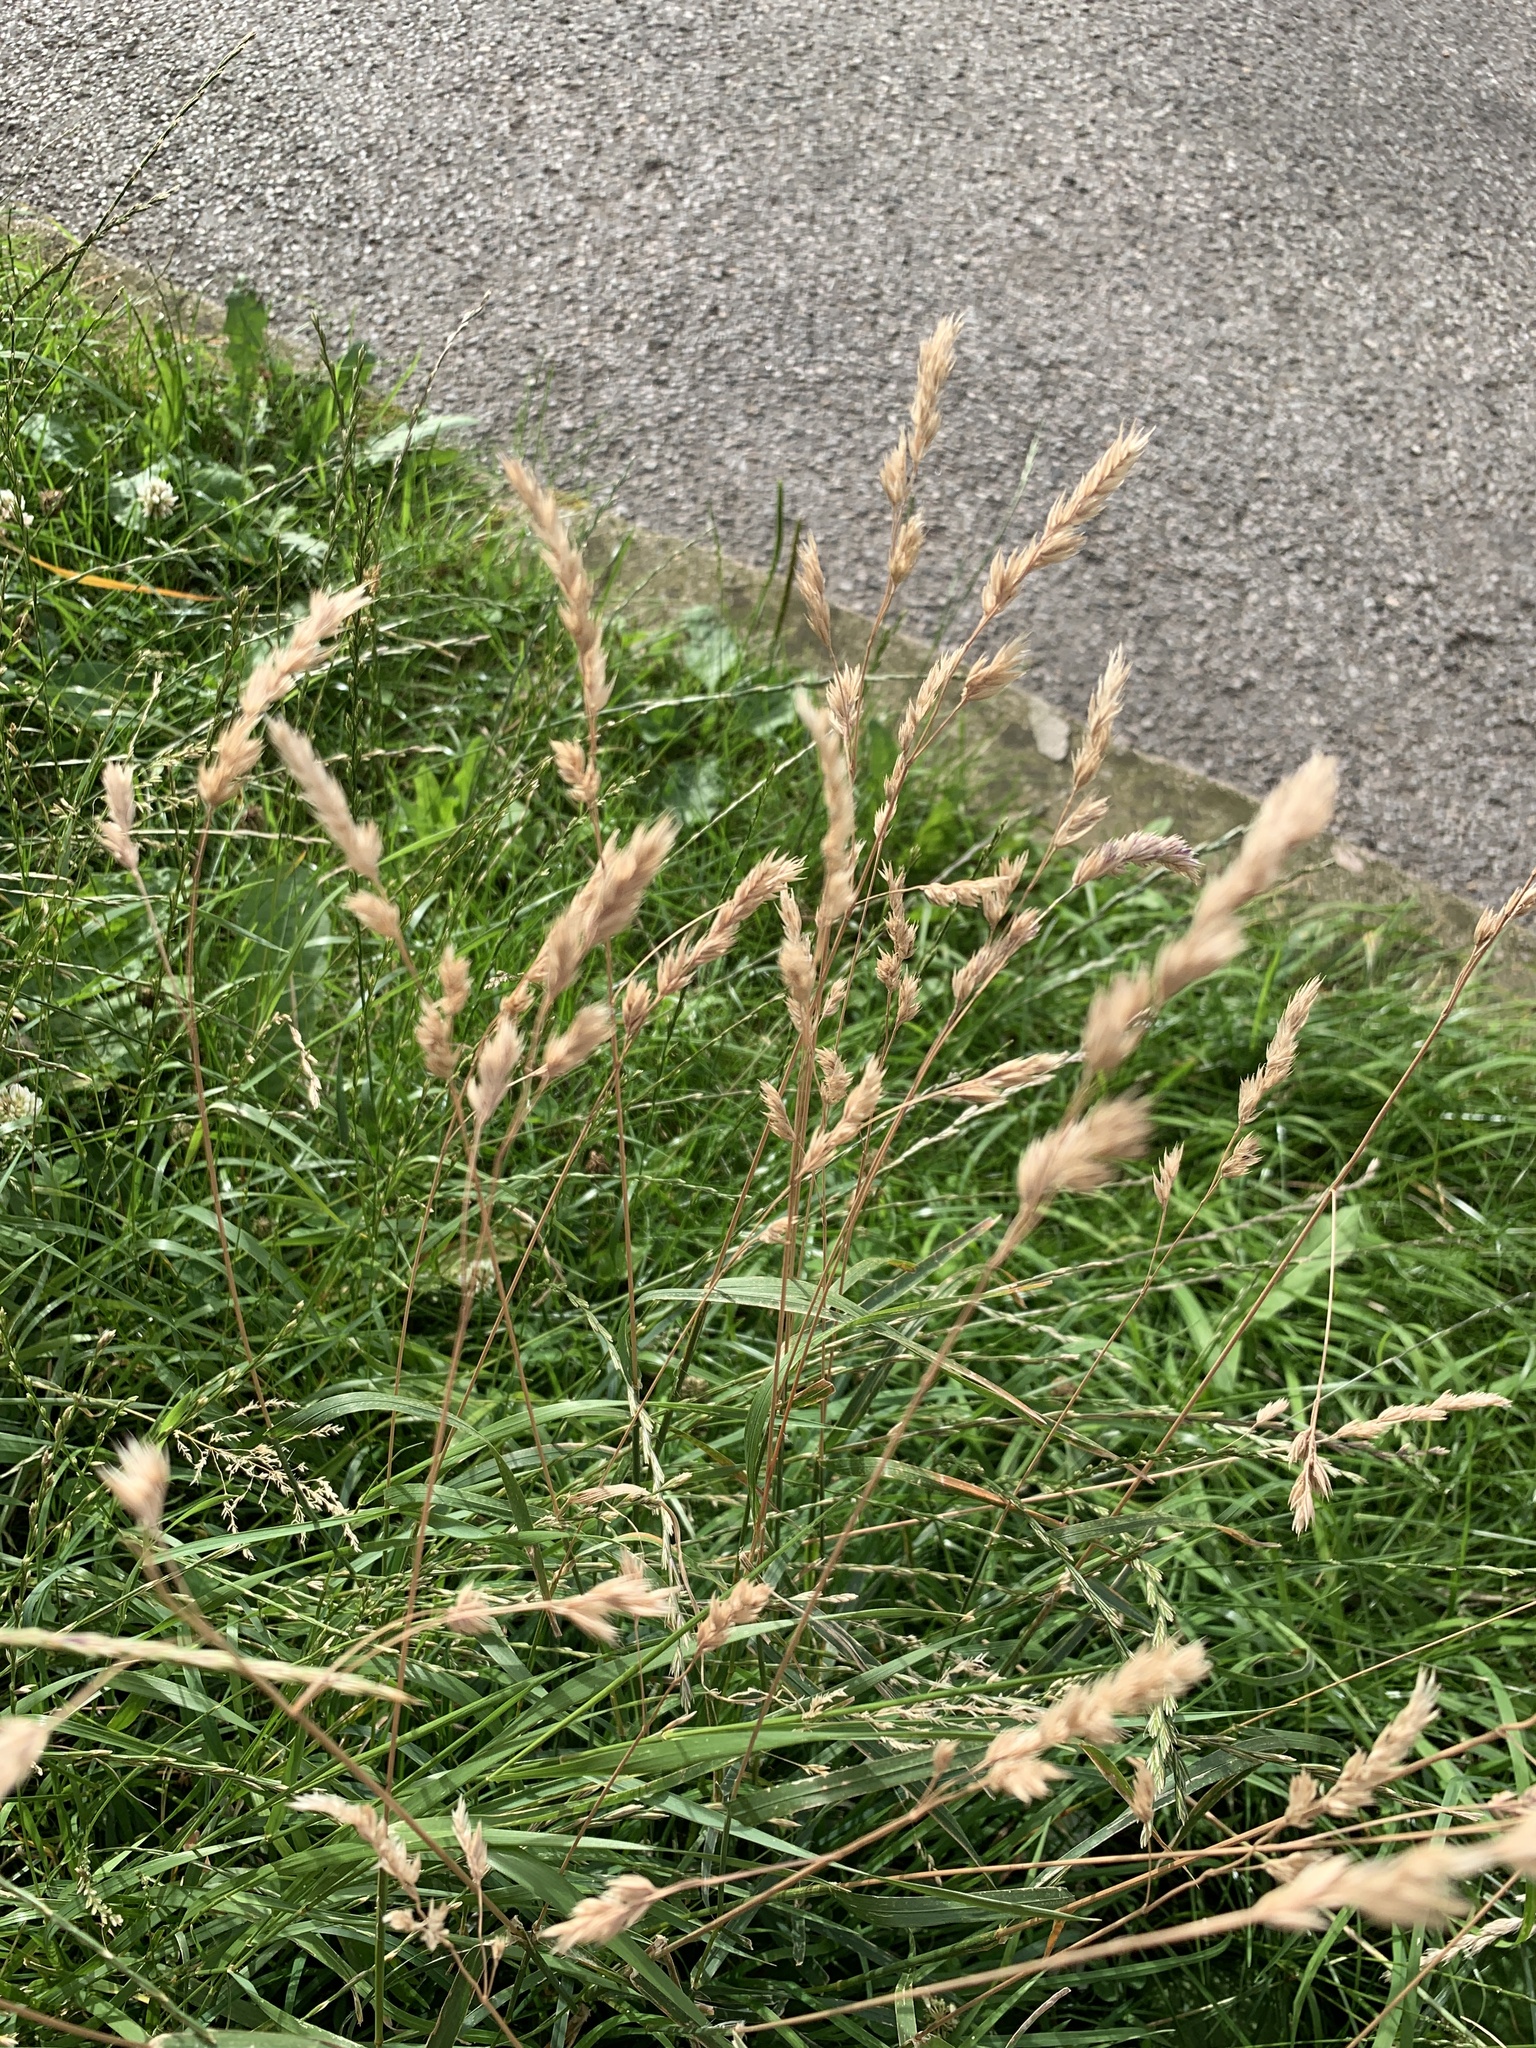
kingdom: Plantae
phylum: Tracheophyta
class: Liliopsida
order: Poales
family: Poaceae
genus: Dactylis
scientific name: Dactylis glomerata
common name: Orchardgrass
